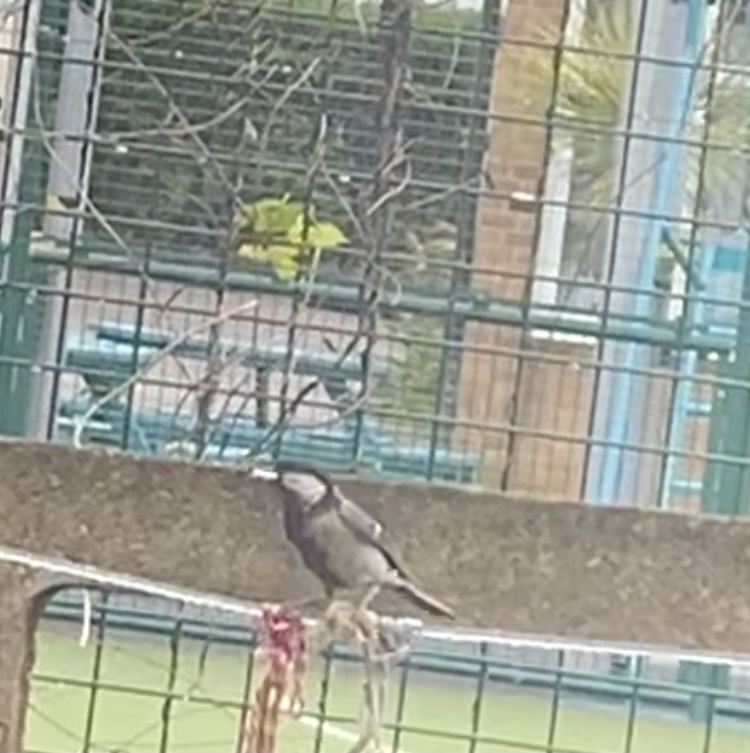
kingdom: Animalia
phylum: Chordata
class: Aves
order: Passeriformes
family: Paridae
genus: Parus
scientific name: Parus major
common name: Great tit
